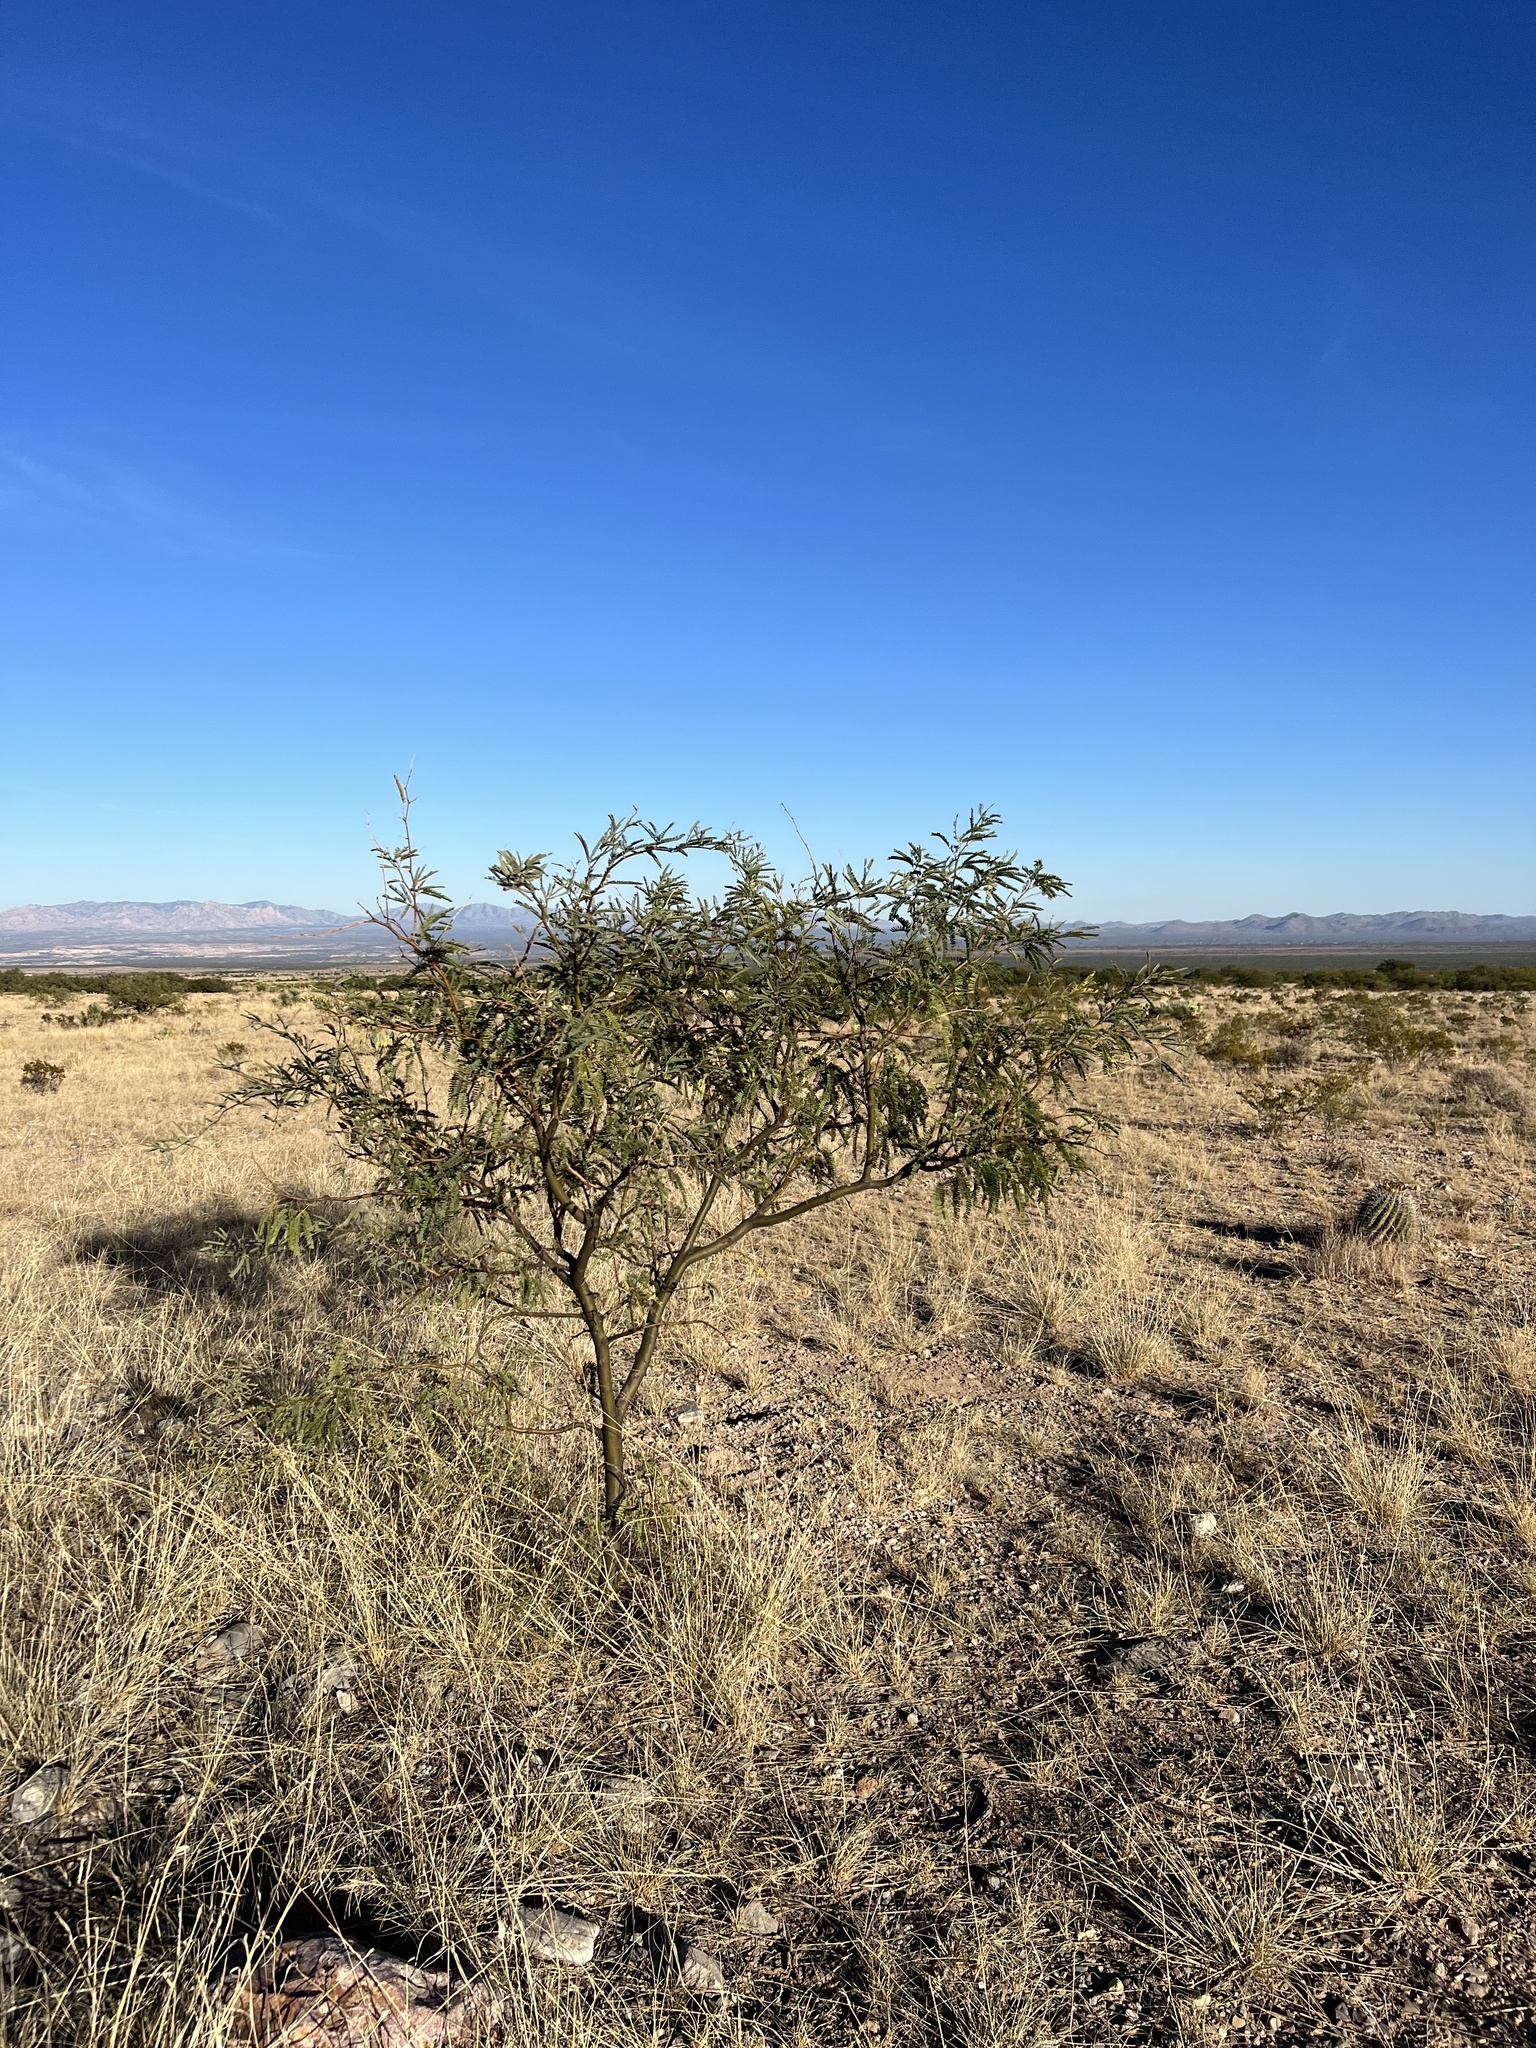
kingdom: Plantae
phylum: Tracheophyta
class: Magnoliopsida
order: Fabales
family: Fabaceae
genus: Prosopis
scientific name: Prosopis velutina
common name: Velvet mesquite
